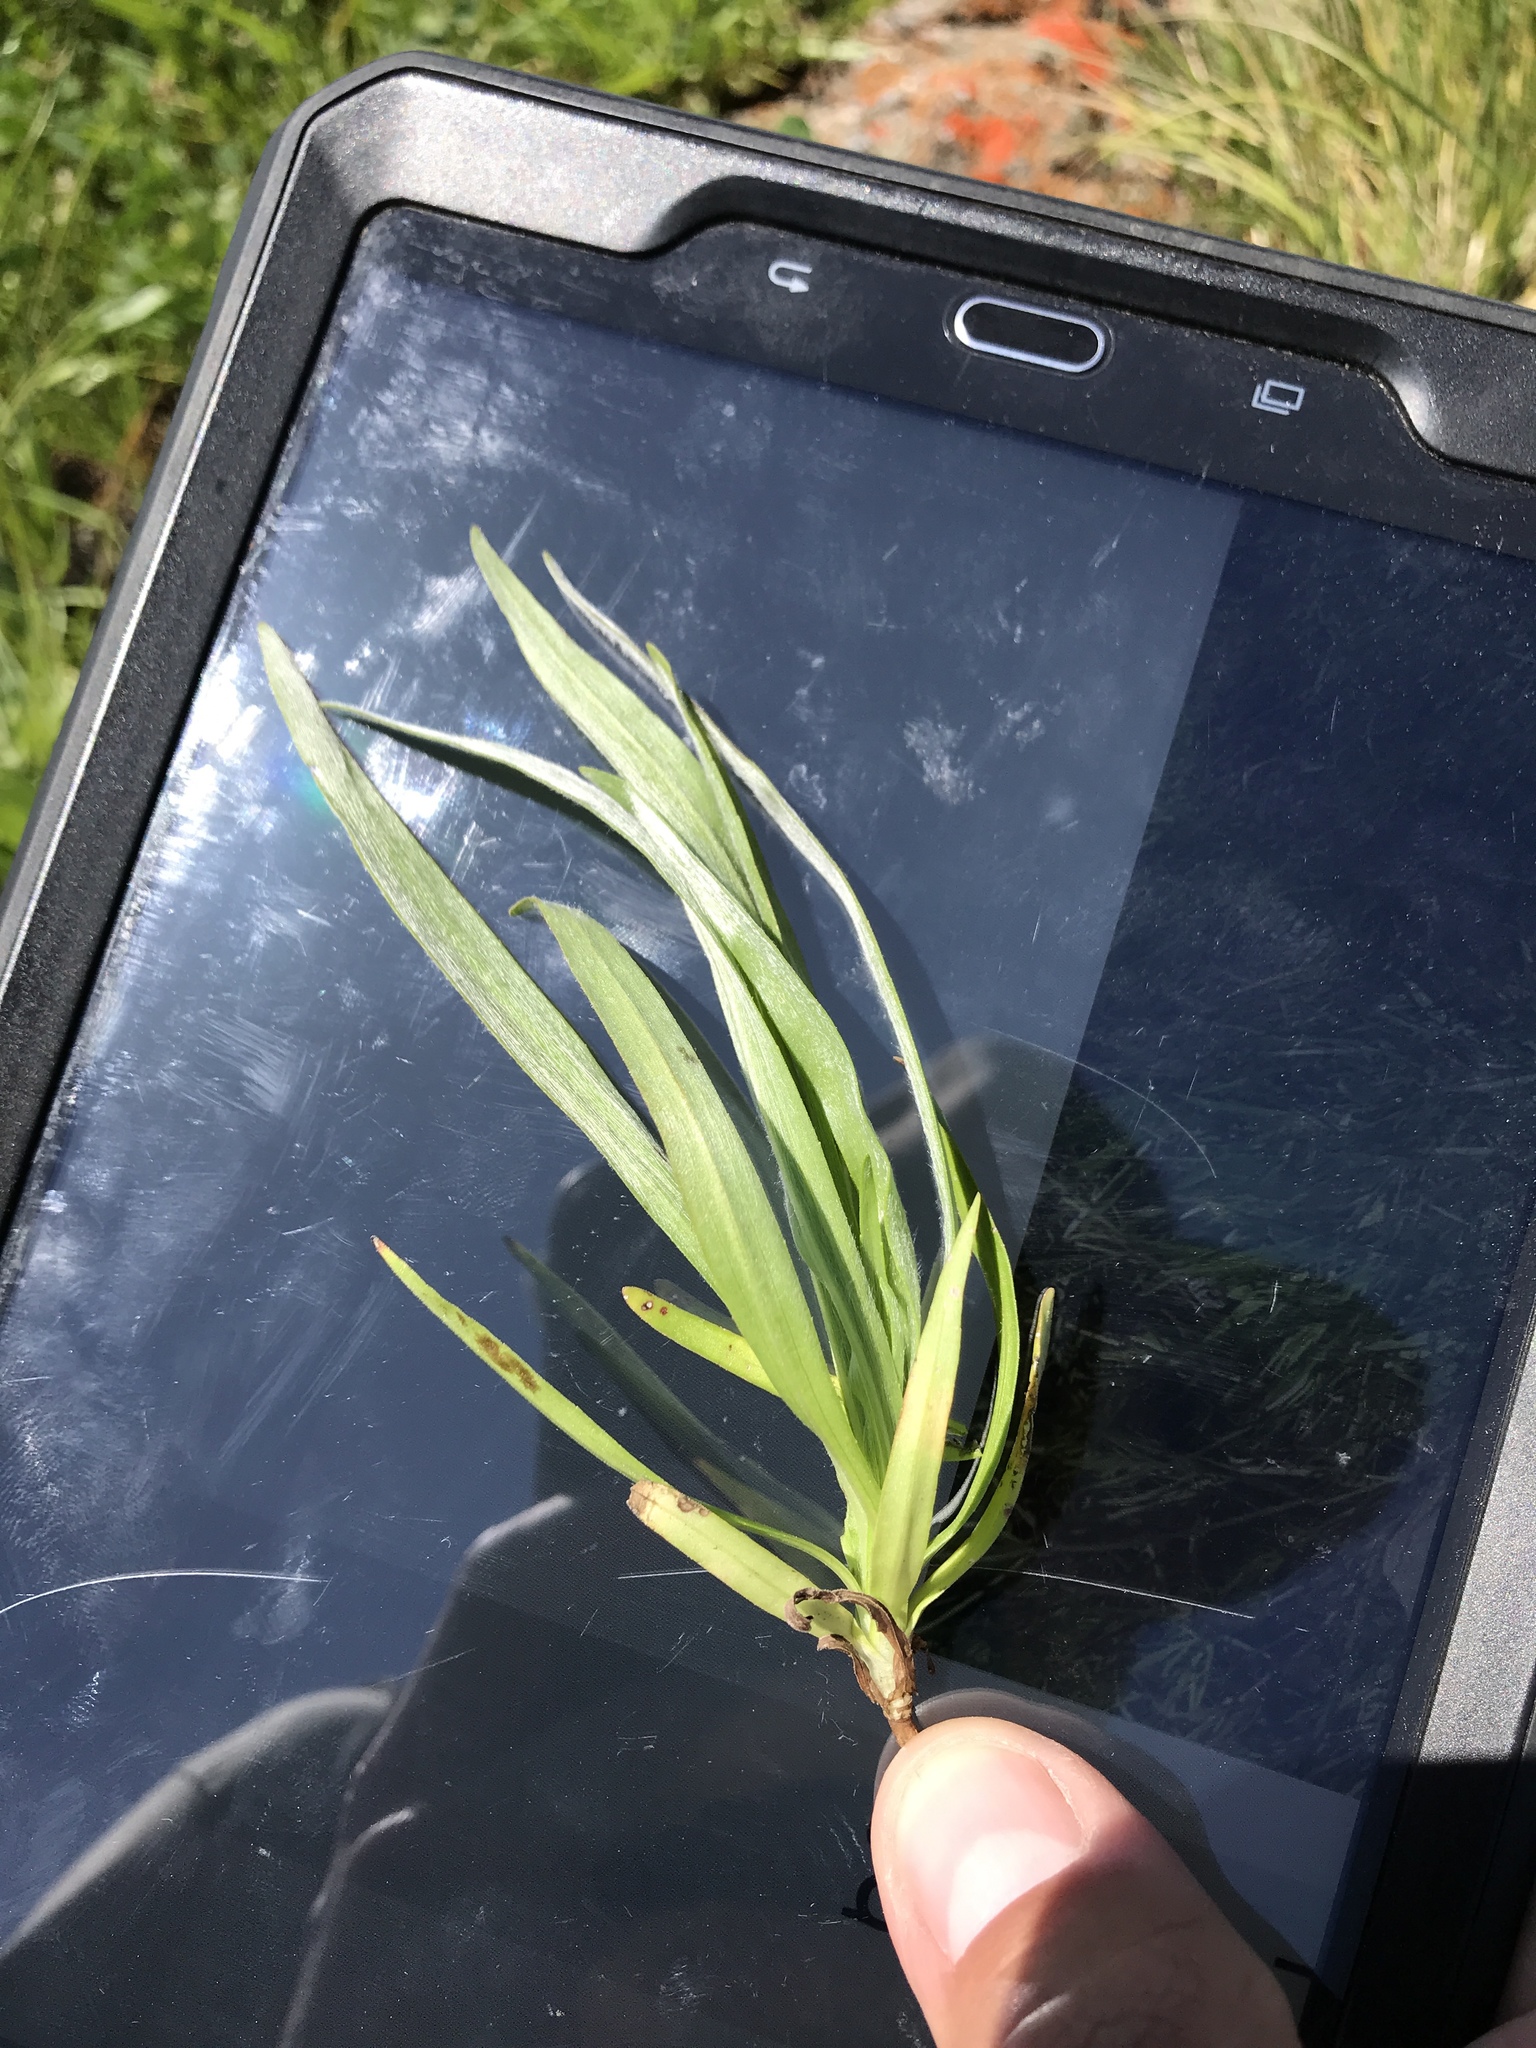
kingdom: Plantae
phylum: Tracheophyta
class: Magnoliopsida
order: Asterales
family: Asteraceae
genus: Hemizonia
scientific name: Hemizonia congesta
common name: Hayfield tarweed
